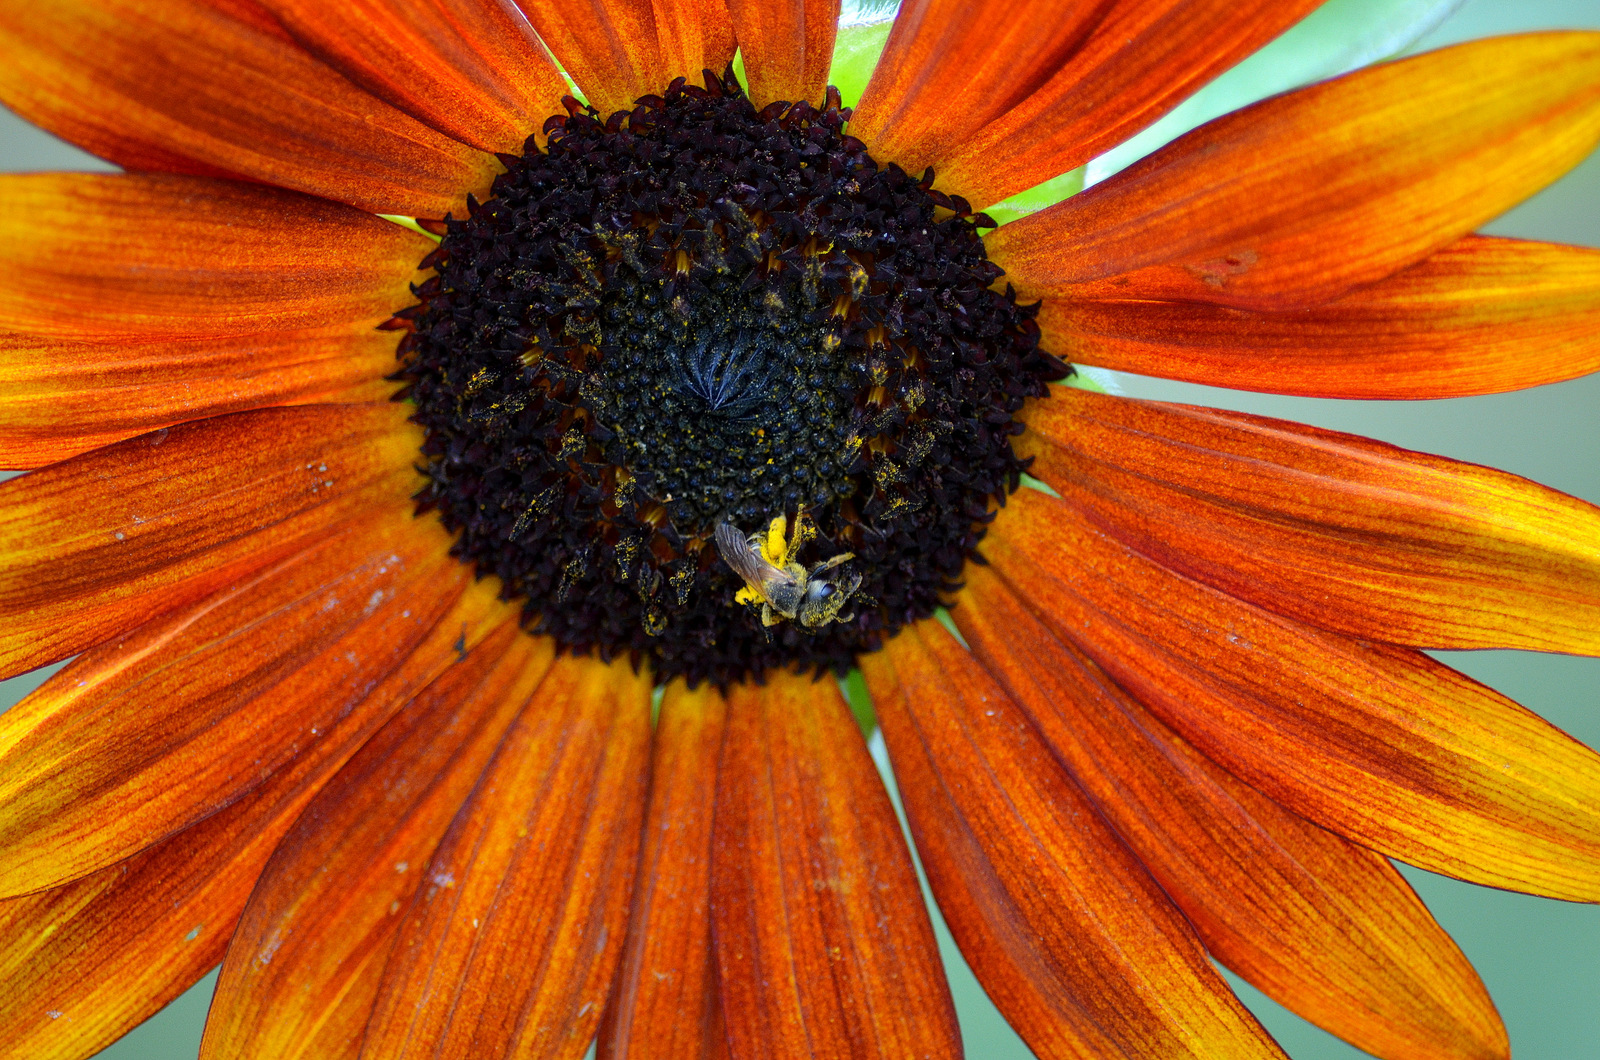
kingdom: Animalia
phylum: Arthropoda
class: Insecta
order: Hymenoptera
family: Halictidae
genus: Halictus
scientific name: Halictus ligatus
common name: Ligated furrow bee
